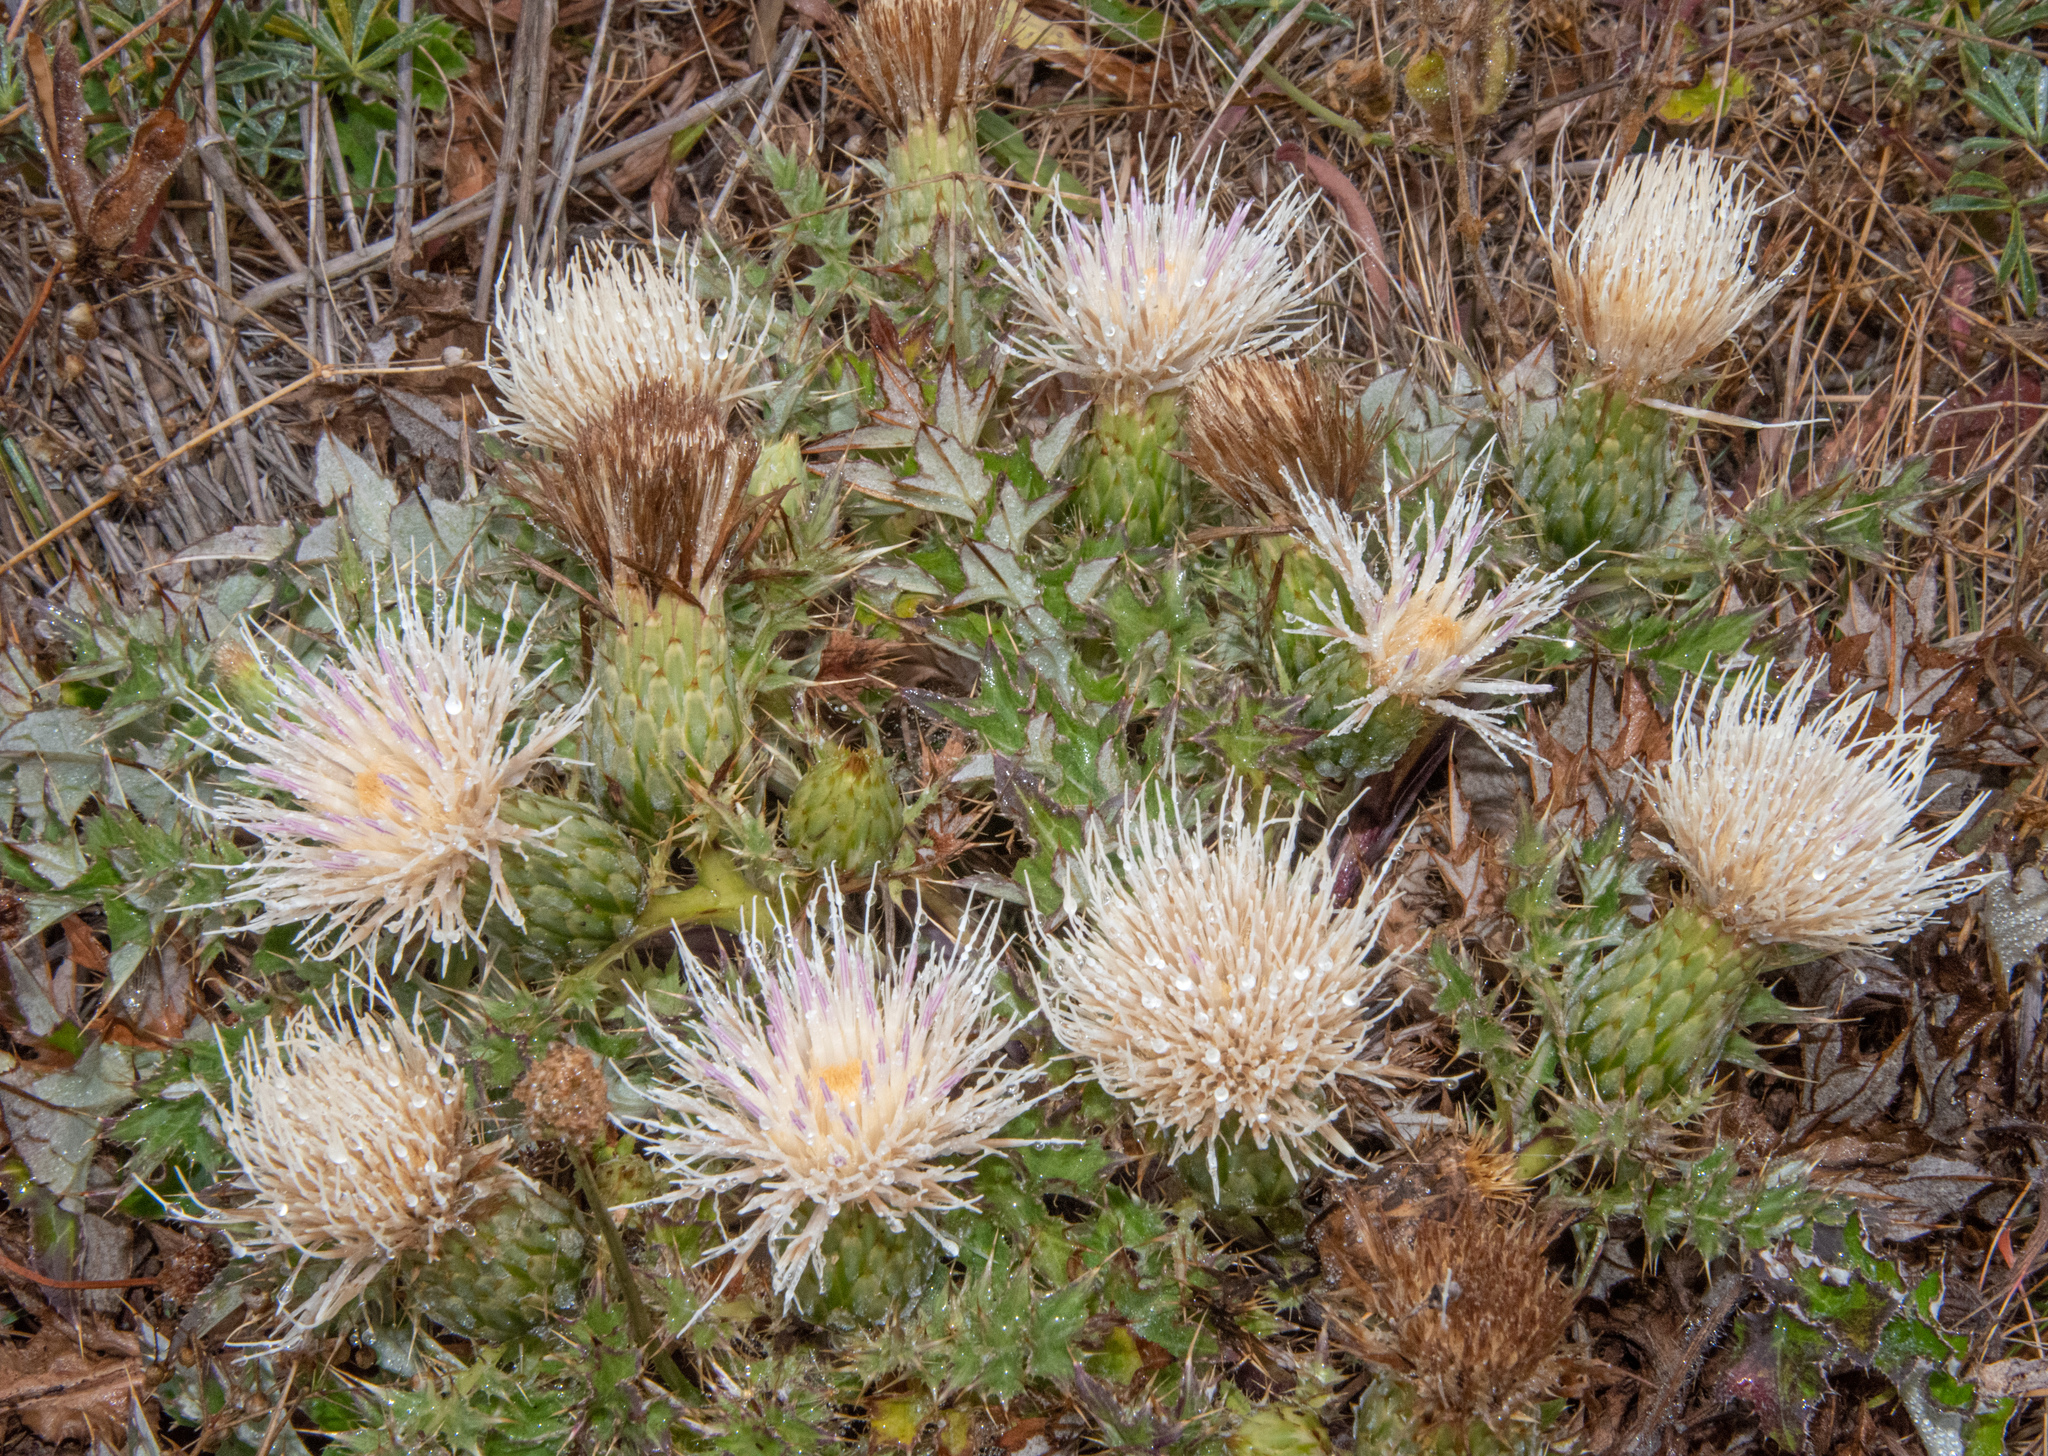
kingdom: Plantae
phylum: Tracheophyta
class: Magnoliopsida
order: Asterales
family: Asteraceae
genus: Cirsium
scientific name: Cirsium quercetorum
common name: Alameda county thistle
